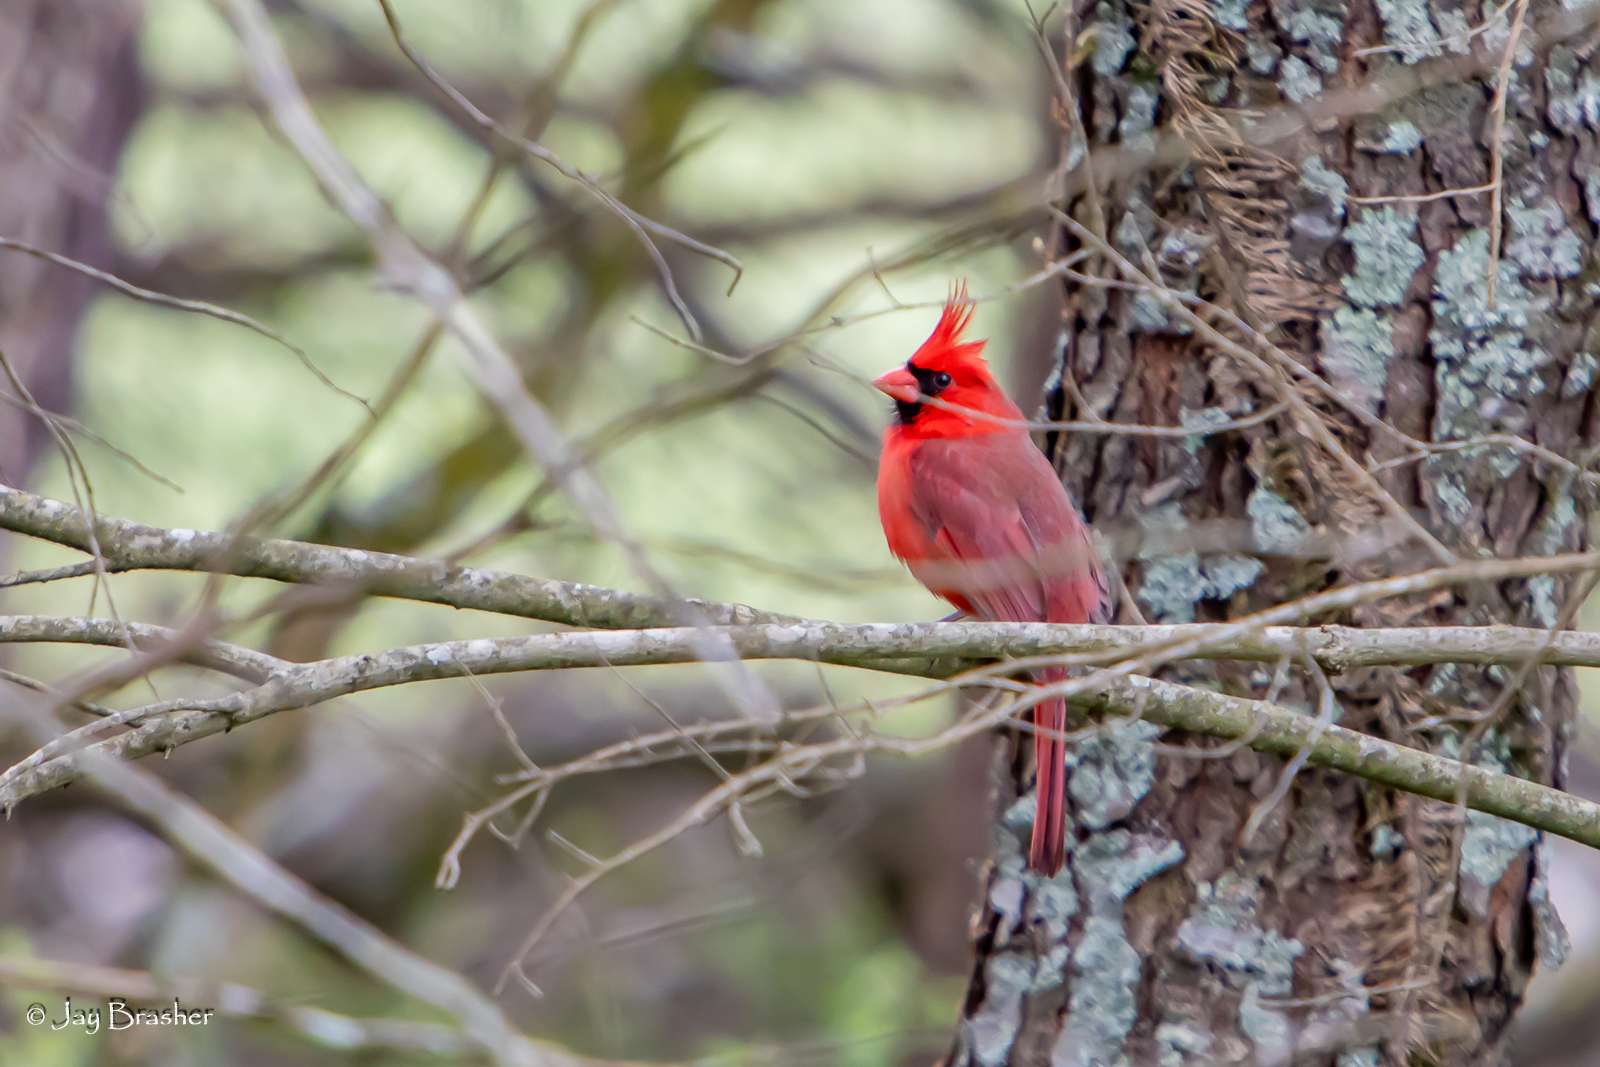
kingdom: Animalia
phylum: Chordata
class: Aves
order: Passeriformes
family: Cardinalidae
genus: Cardinalis
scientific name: Cardinalis cardinalis
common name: Northern cardinal
